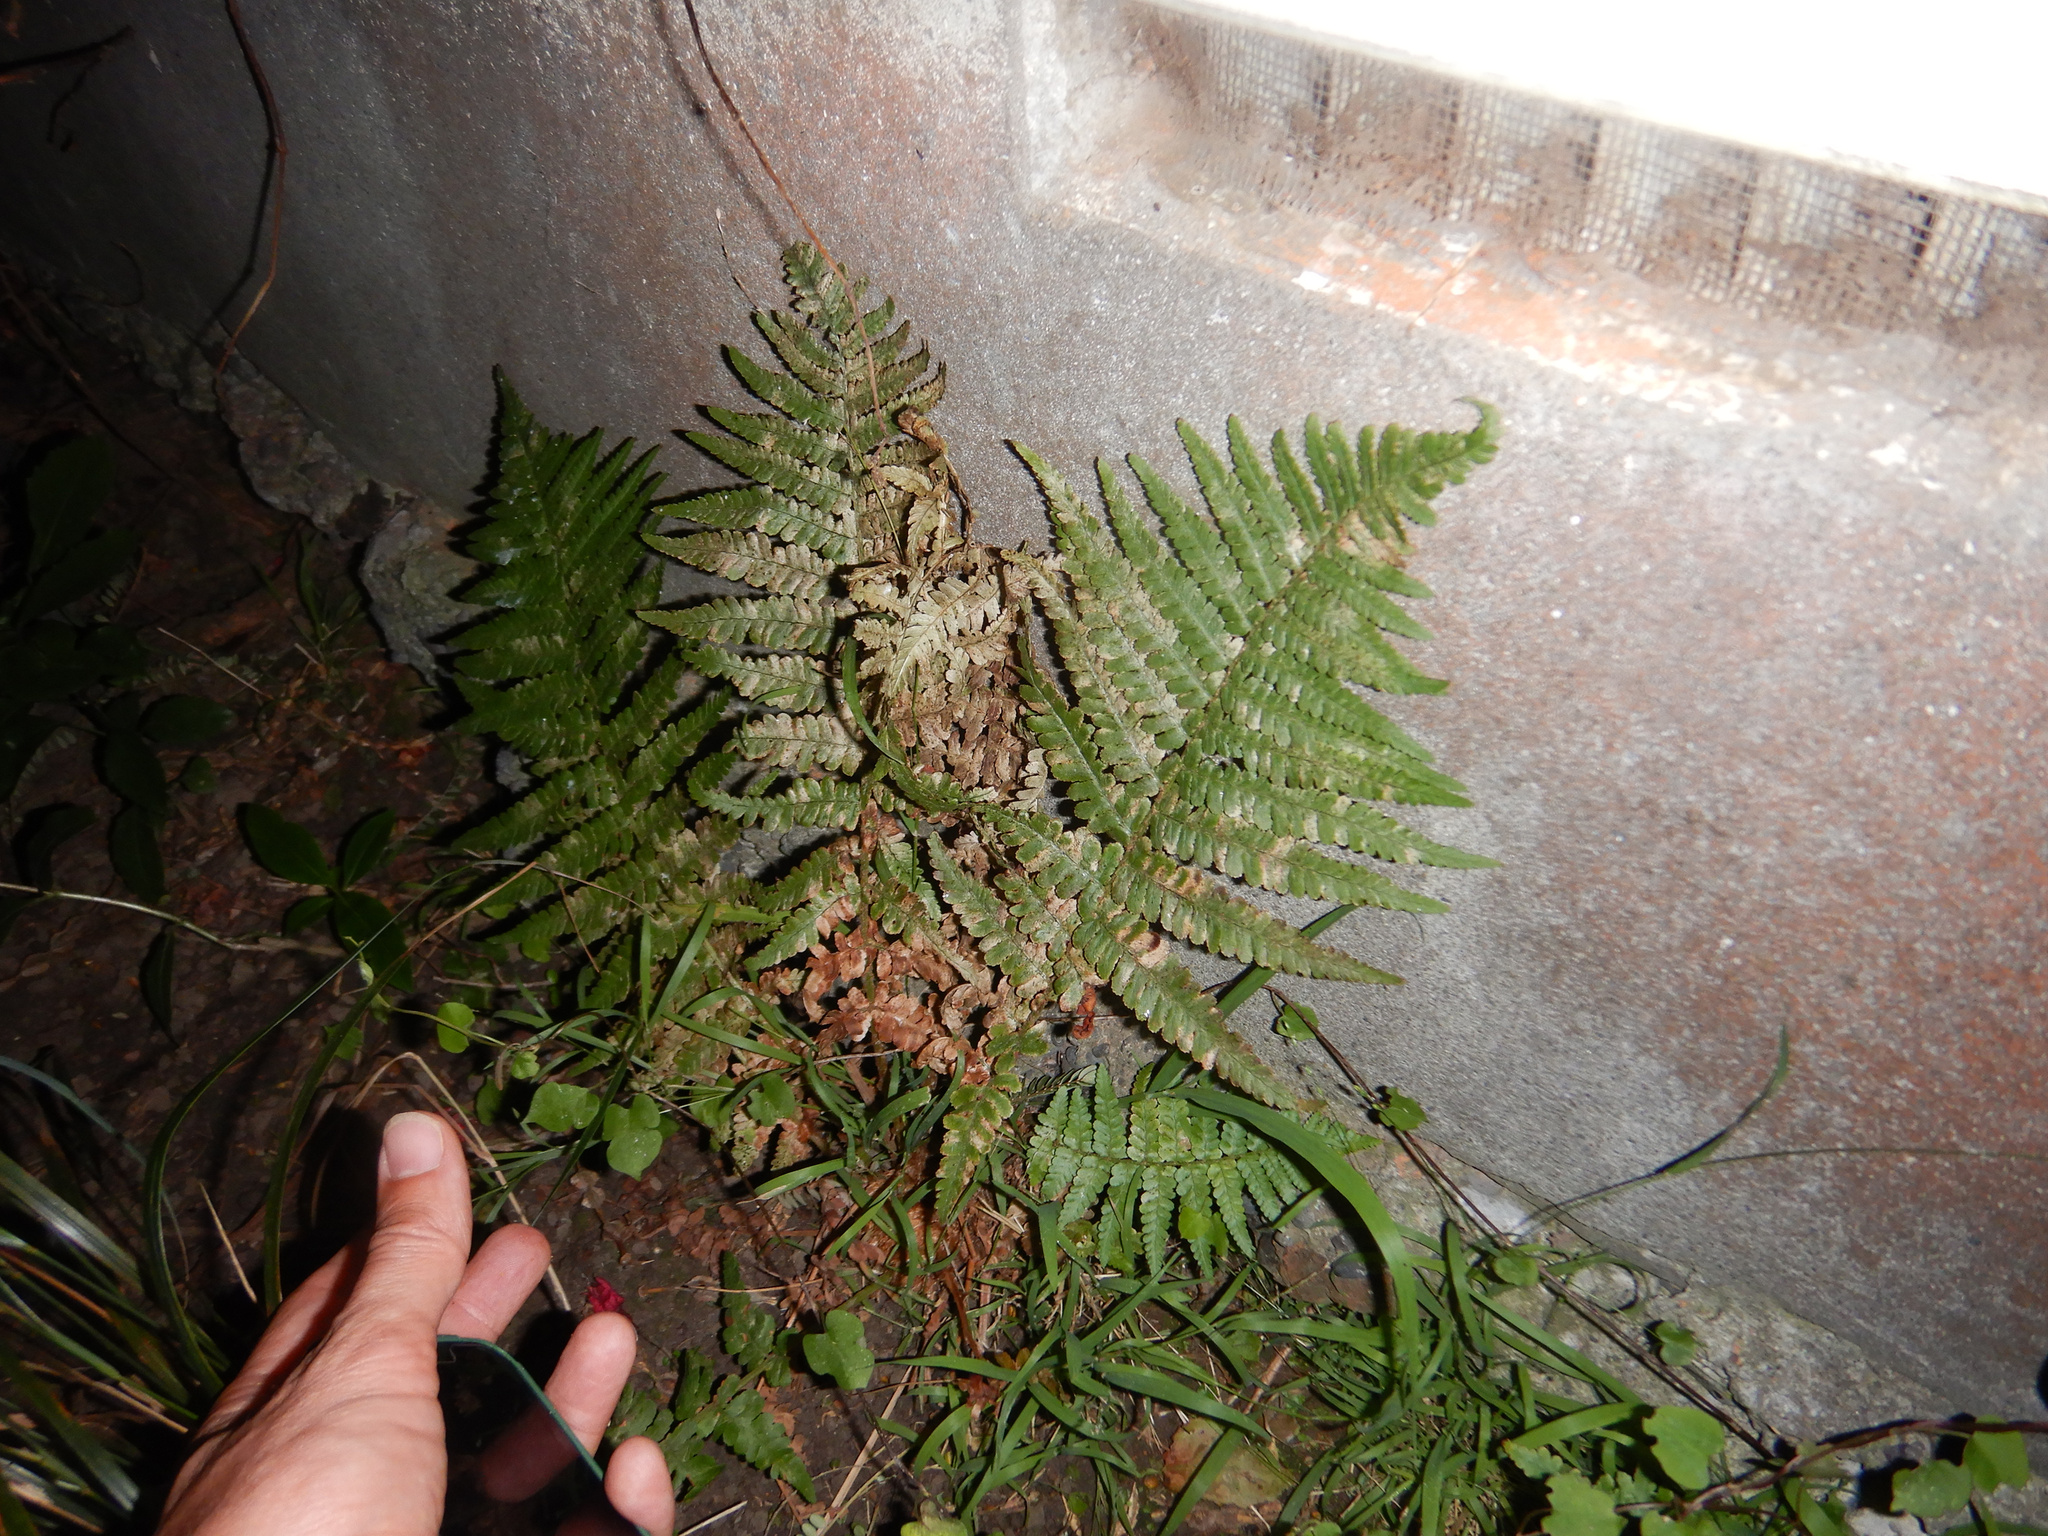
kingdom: Plantae
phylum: Tracheophyta
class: Polypodiopsida
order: Polypodiales
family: Dryopteridaceae
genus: Dryopteris
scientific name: Dryopteris filix-mas
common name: Male fern
